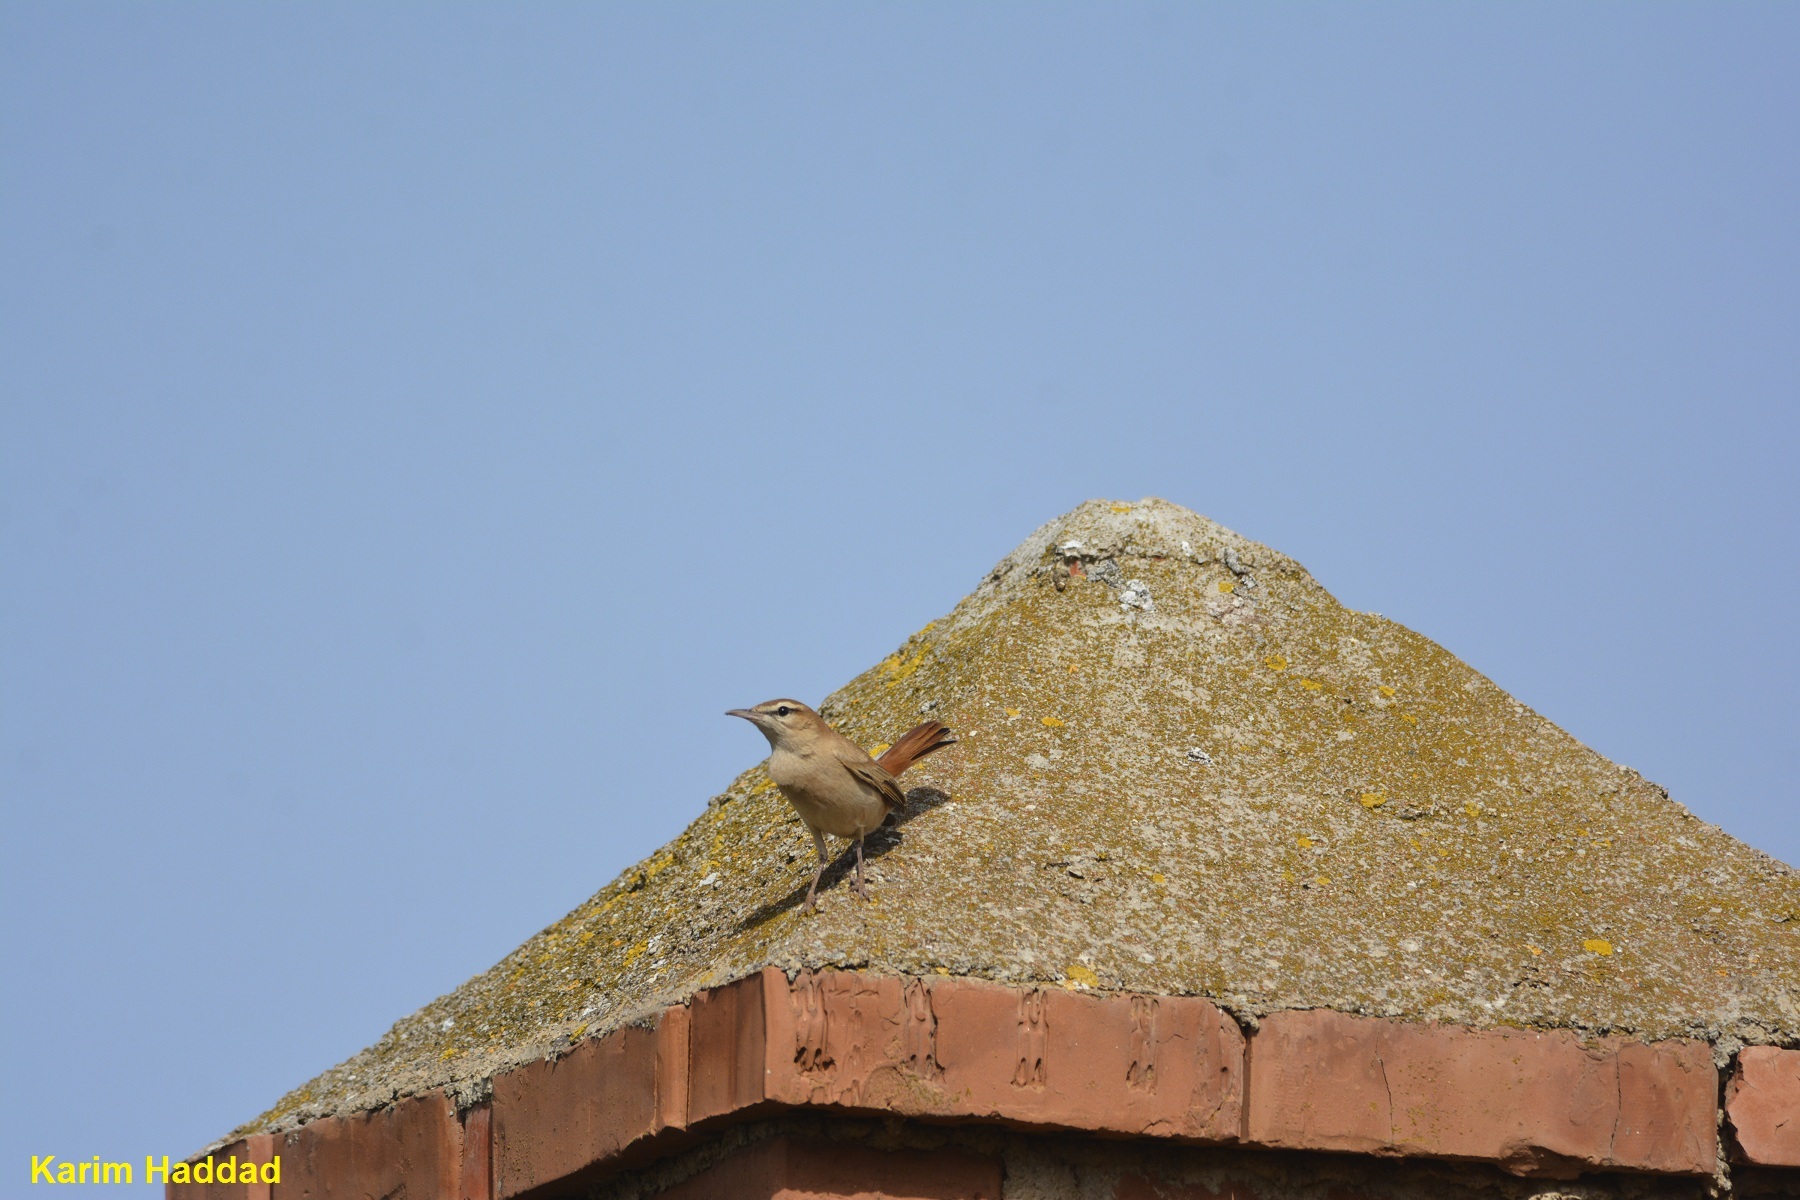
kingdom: Animalia
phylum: Chordata
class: Aves
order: Passeriformes
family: Muscicapidae
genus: Erythropygia
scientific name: Erythropygia galactotes
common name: Rufous-tailed scrub robin
